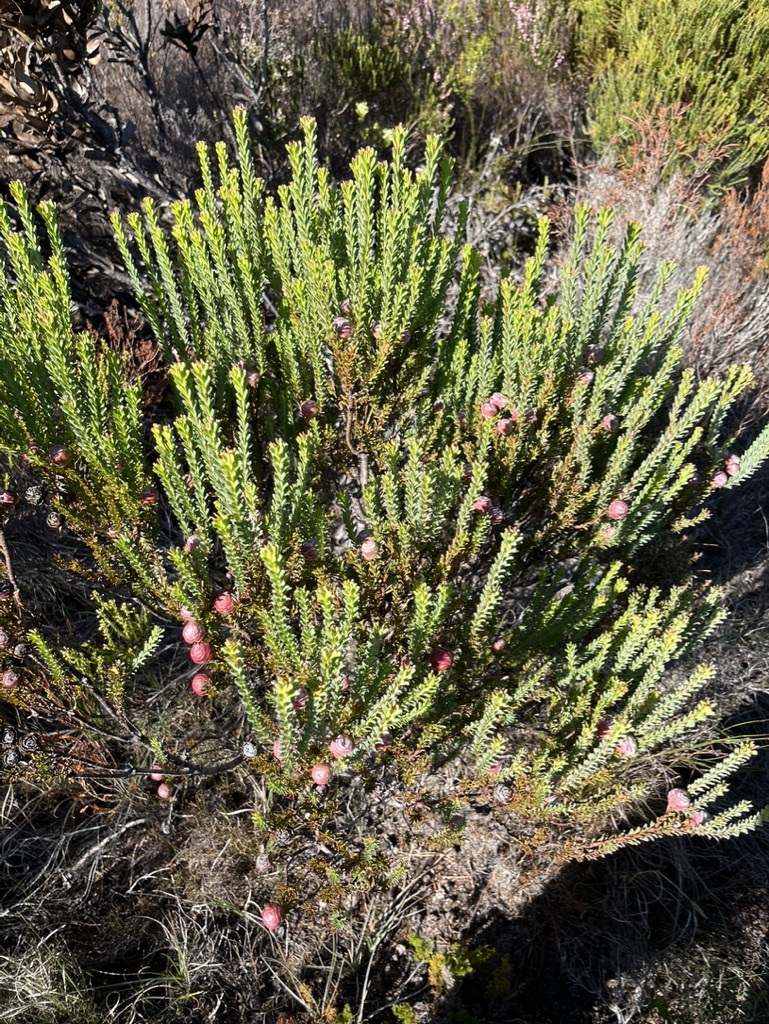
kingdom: Plantae
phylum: Tracheophyta
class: Magnoliopsida
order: Proteales
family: Proteaceae
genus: Leucadendron
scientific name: Leucadendron linifolium
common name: Line-leaf conebush
